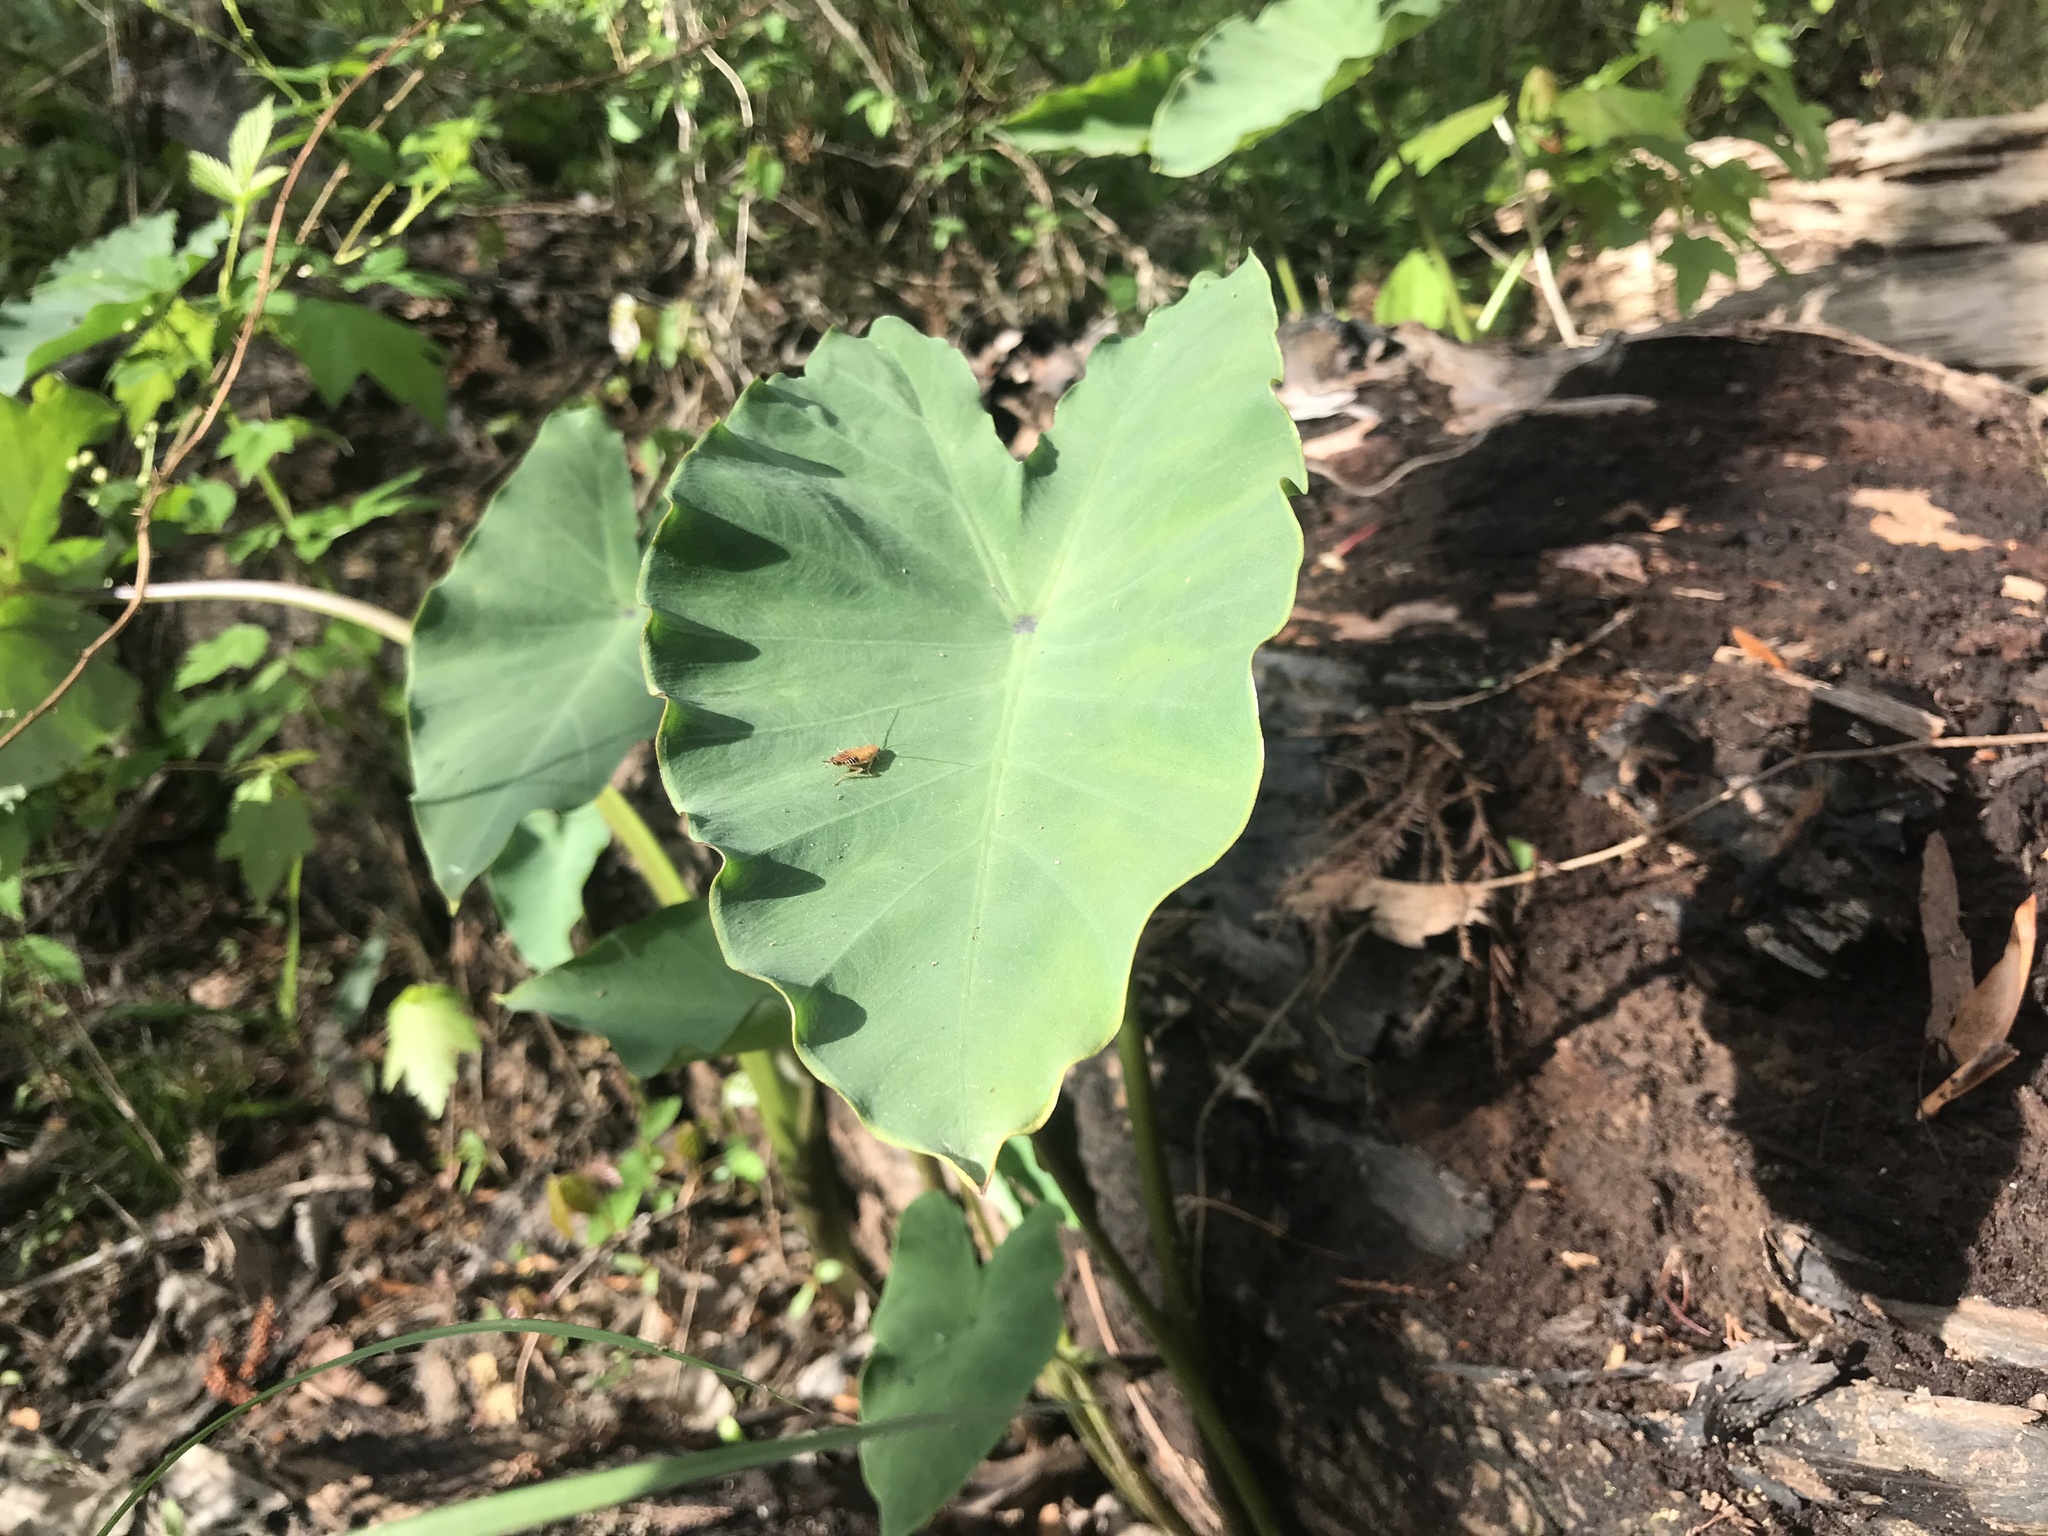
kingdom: Plantae
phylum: Tracheophyta
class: Liliopsida
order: Alismatales
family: Araceae
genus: Colocasia
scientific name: Colocasia esculenta
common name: Taro
